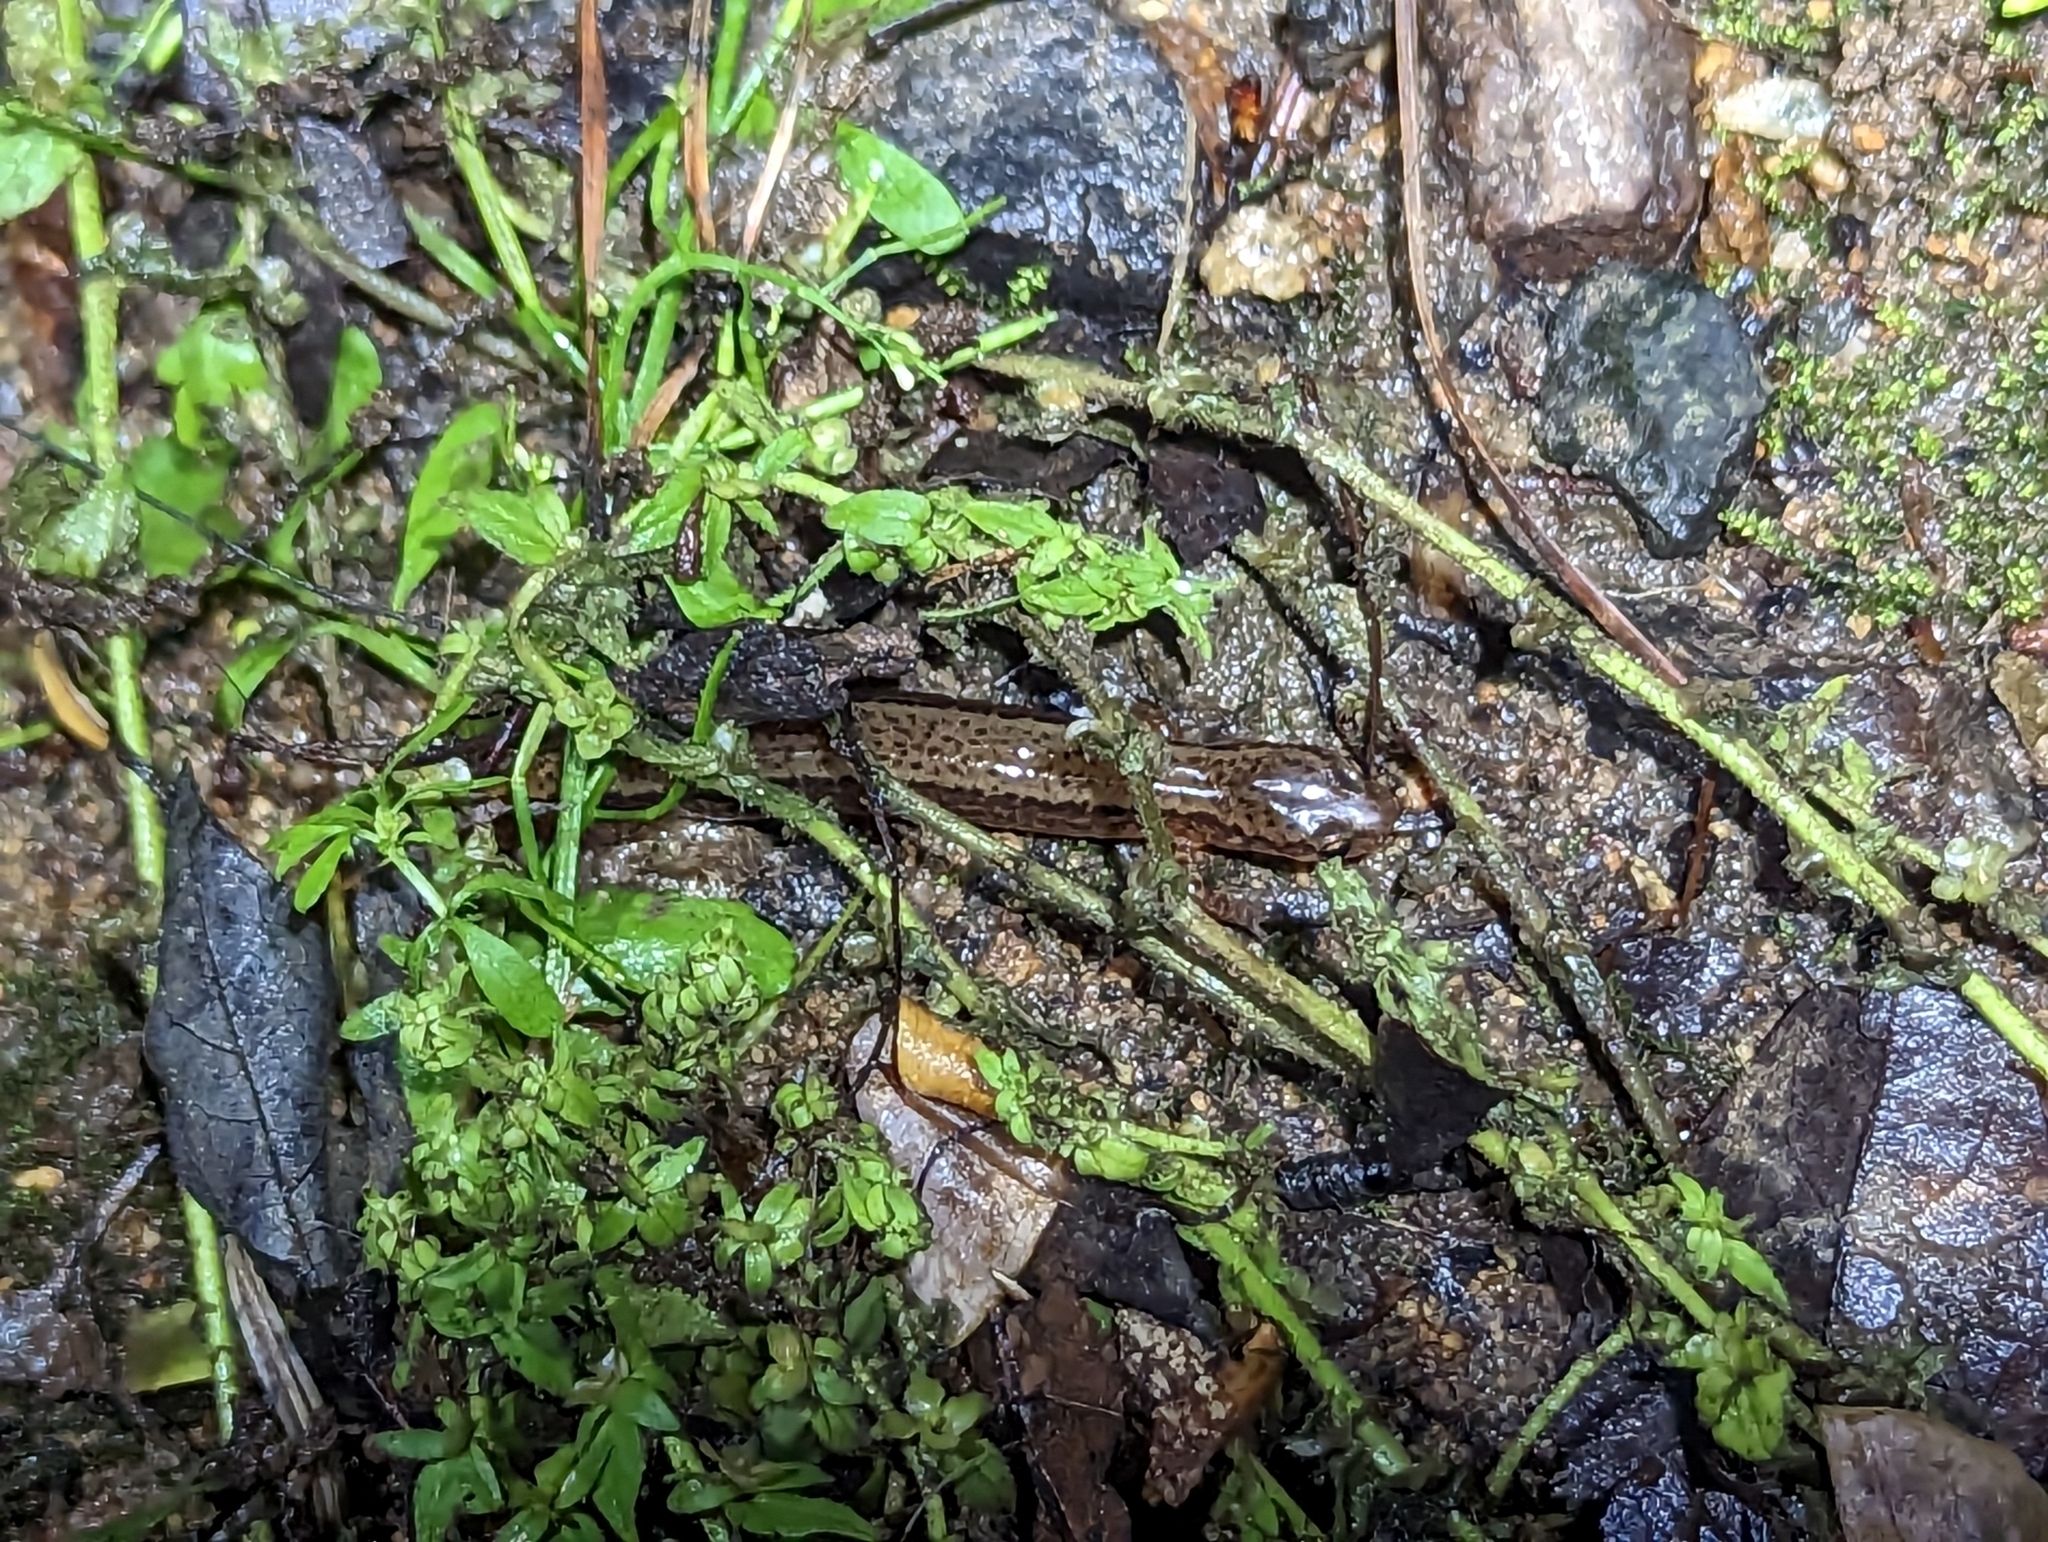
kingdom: Animalia
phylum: Chordata
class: Amphibia
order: Caudata
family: Plethodontidae
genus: Eurycea
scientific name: Eurycea cirrigera
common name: Southern two-lined salamander
